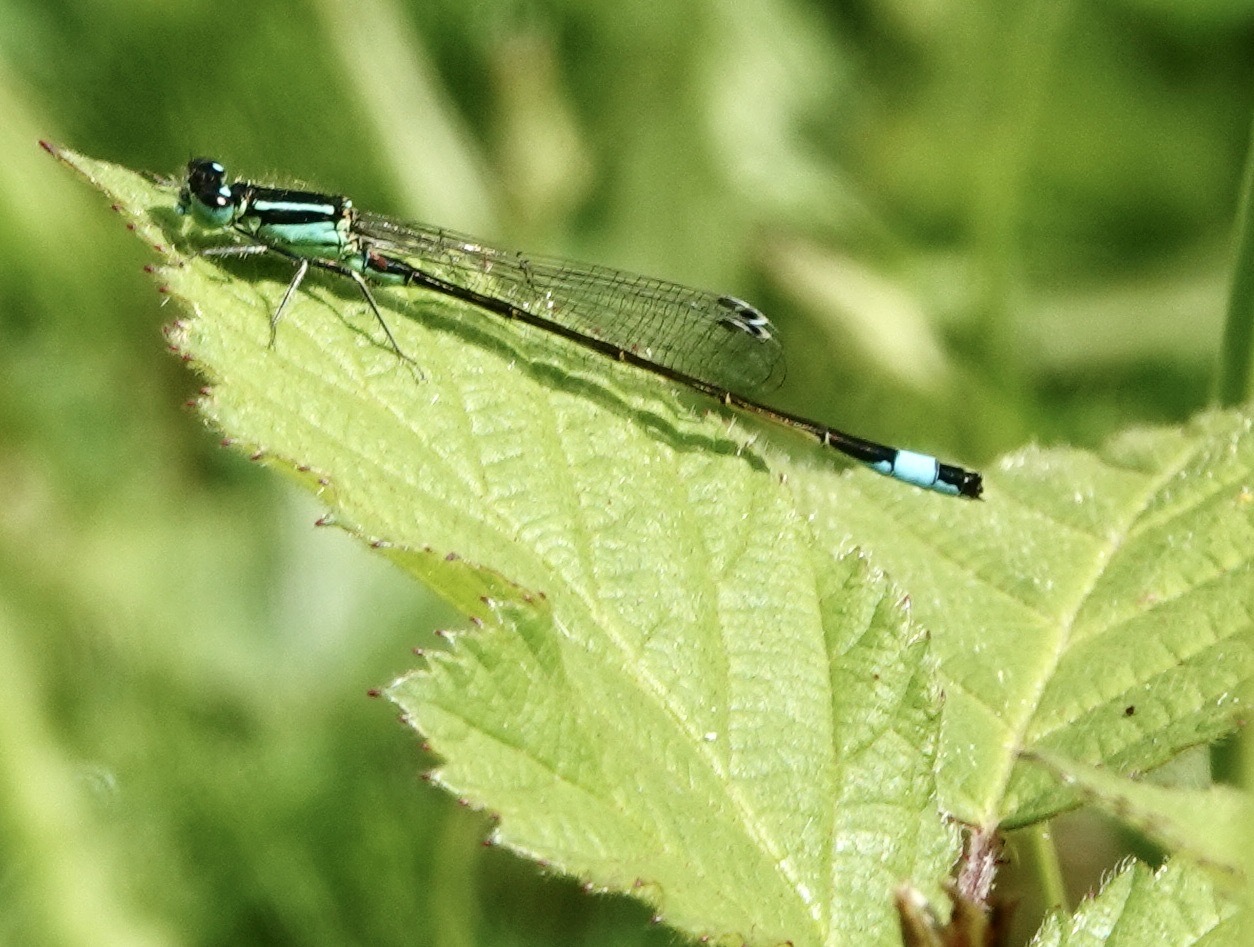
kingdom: Animalia
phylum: Arthropoda
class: Insecta
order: Odonata
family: Coenagrionidae
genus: Ischnura
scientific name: Ischnura elegans
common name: Blue-tailed damselfly
